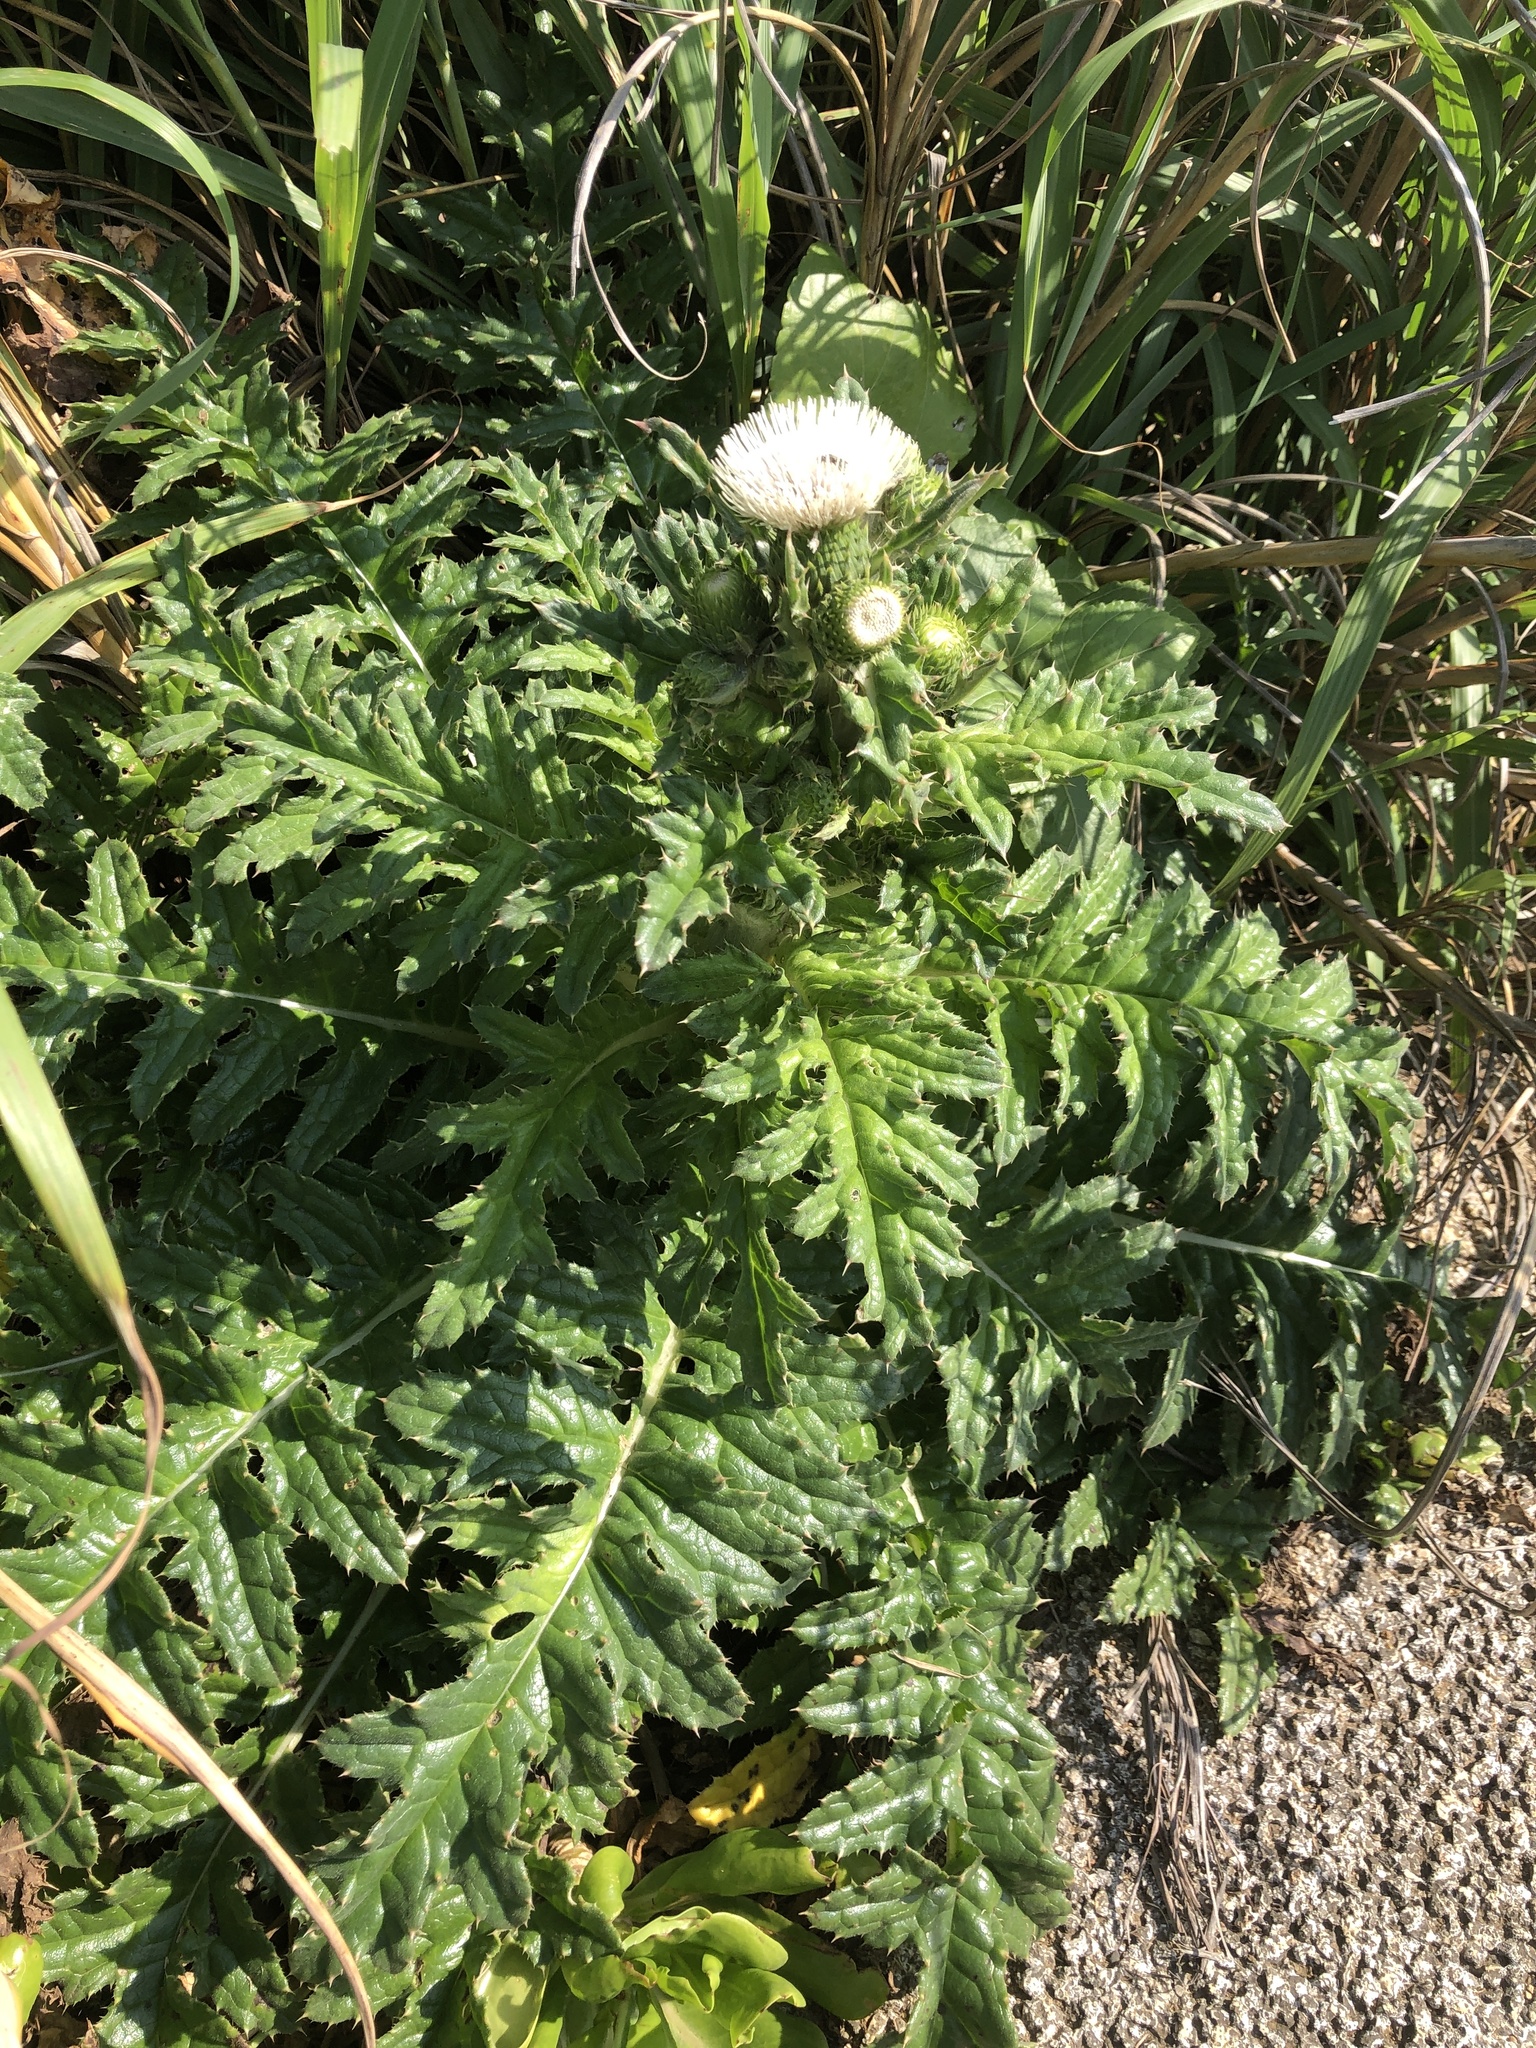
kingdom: Plantae
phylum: Tracheophyta
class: Magnoliopsida
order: Asterales
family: Asteraceae
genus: Cirsium
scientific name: Cirsium brevicaule
